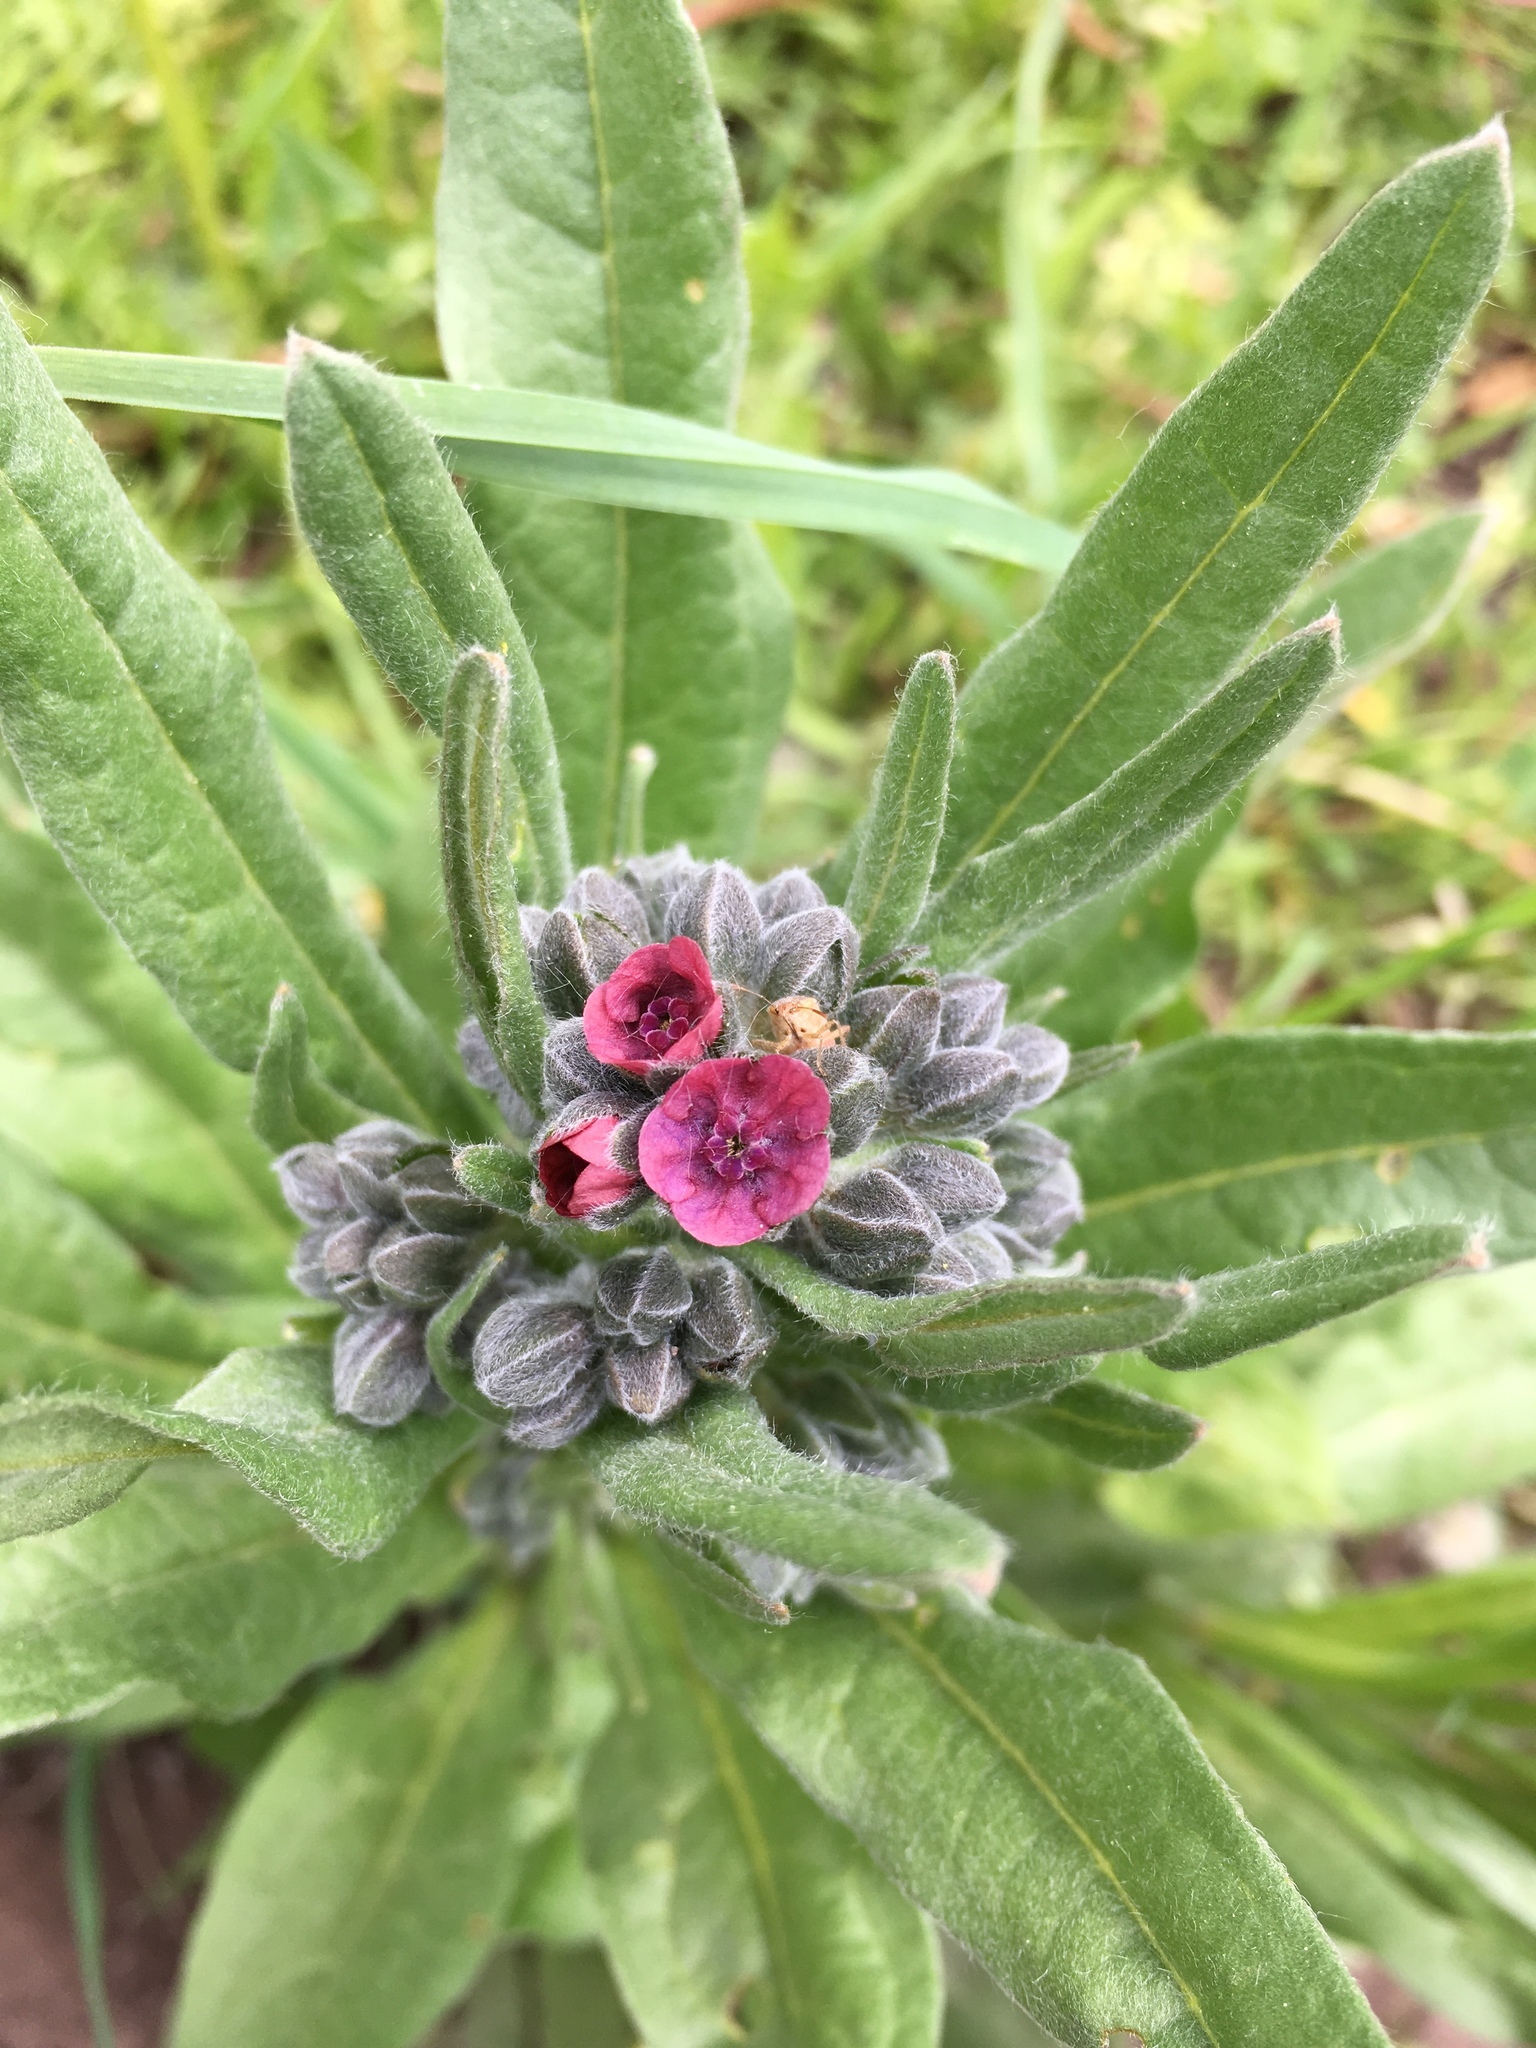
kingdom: Plantae
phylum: Tracheophyta
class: Magnoliopsida
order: Boraginales
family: Boraginaceae
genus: Cynoglossum
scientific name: Cynoglossum officinale
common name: Hound's-tongue
